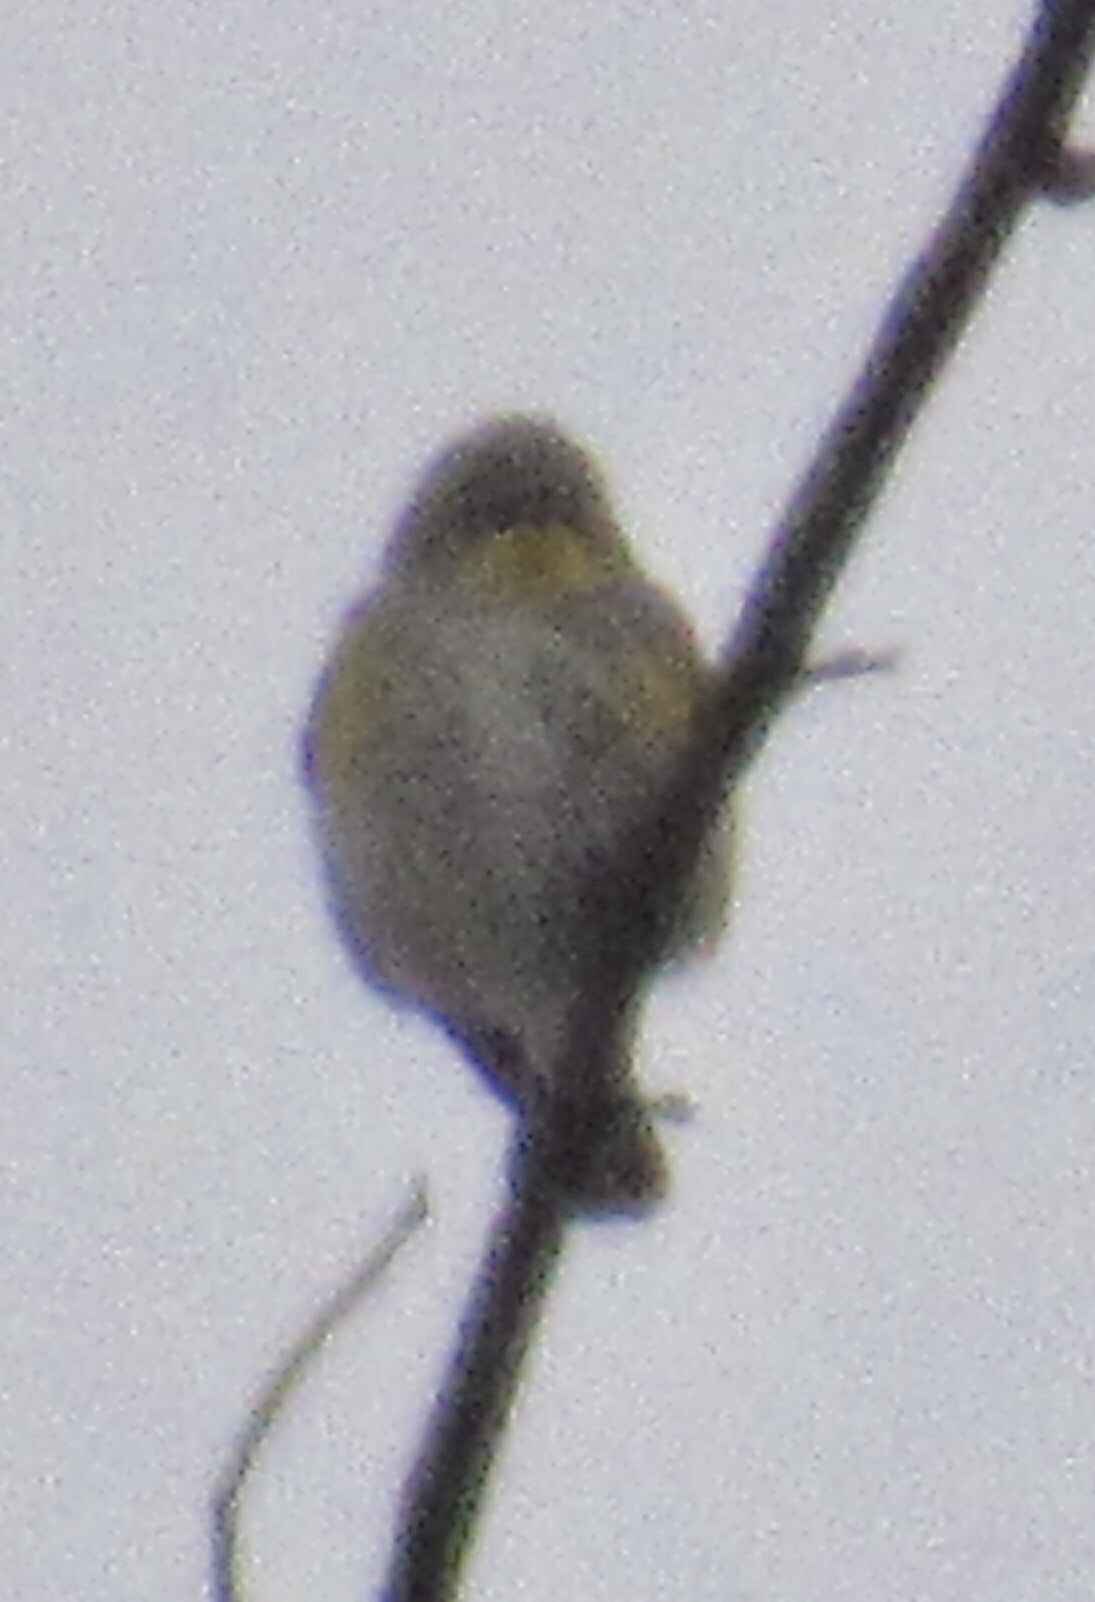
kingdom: Animalia
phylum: Chordata
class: Aves
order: Passeriformes
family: Parulidae
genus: Setophaga
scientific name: Setophaga coronata
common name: Myrtle warbler
